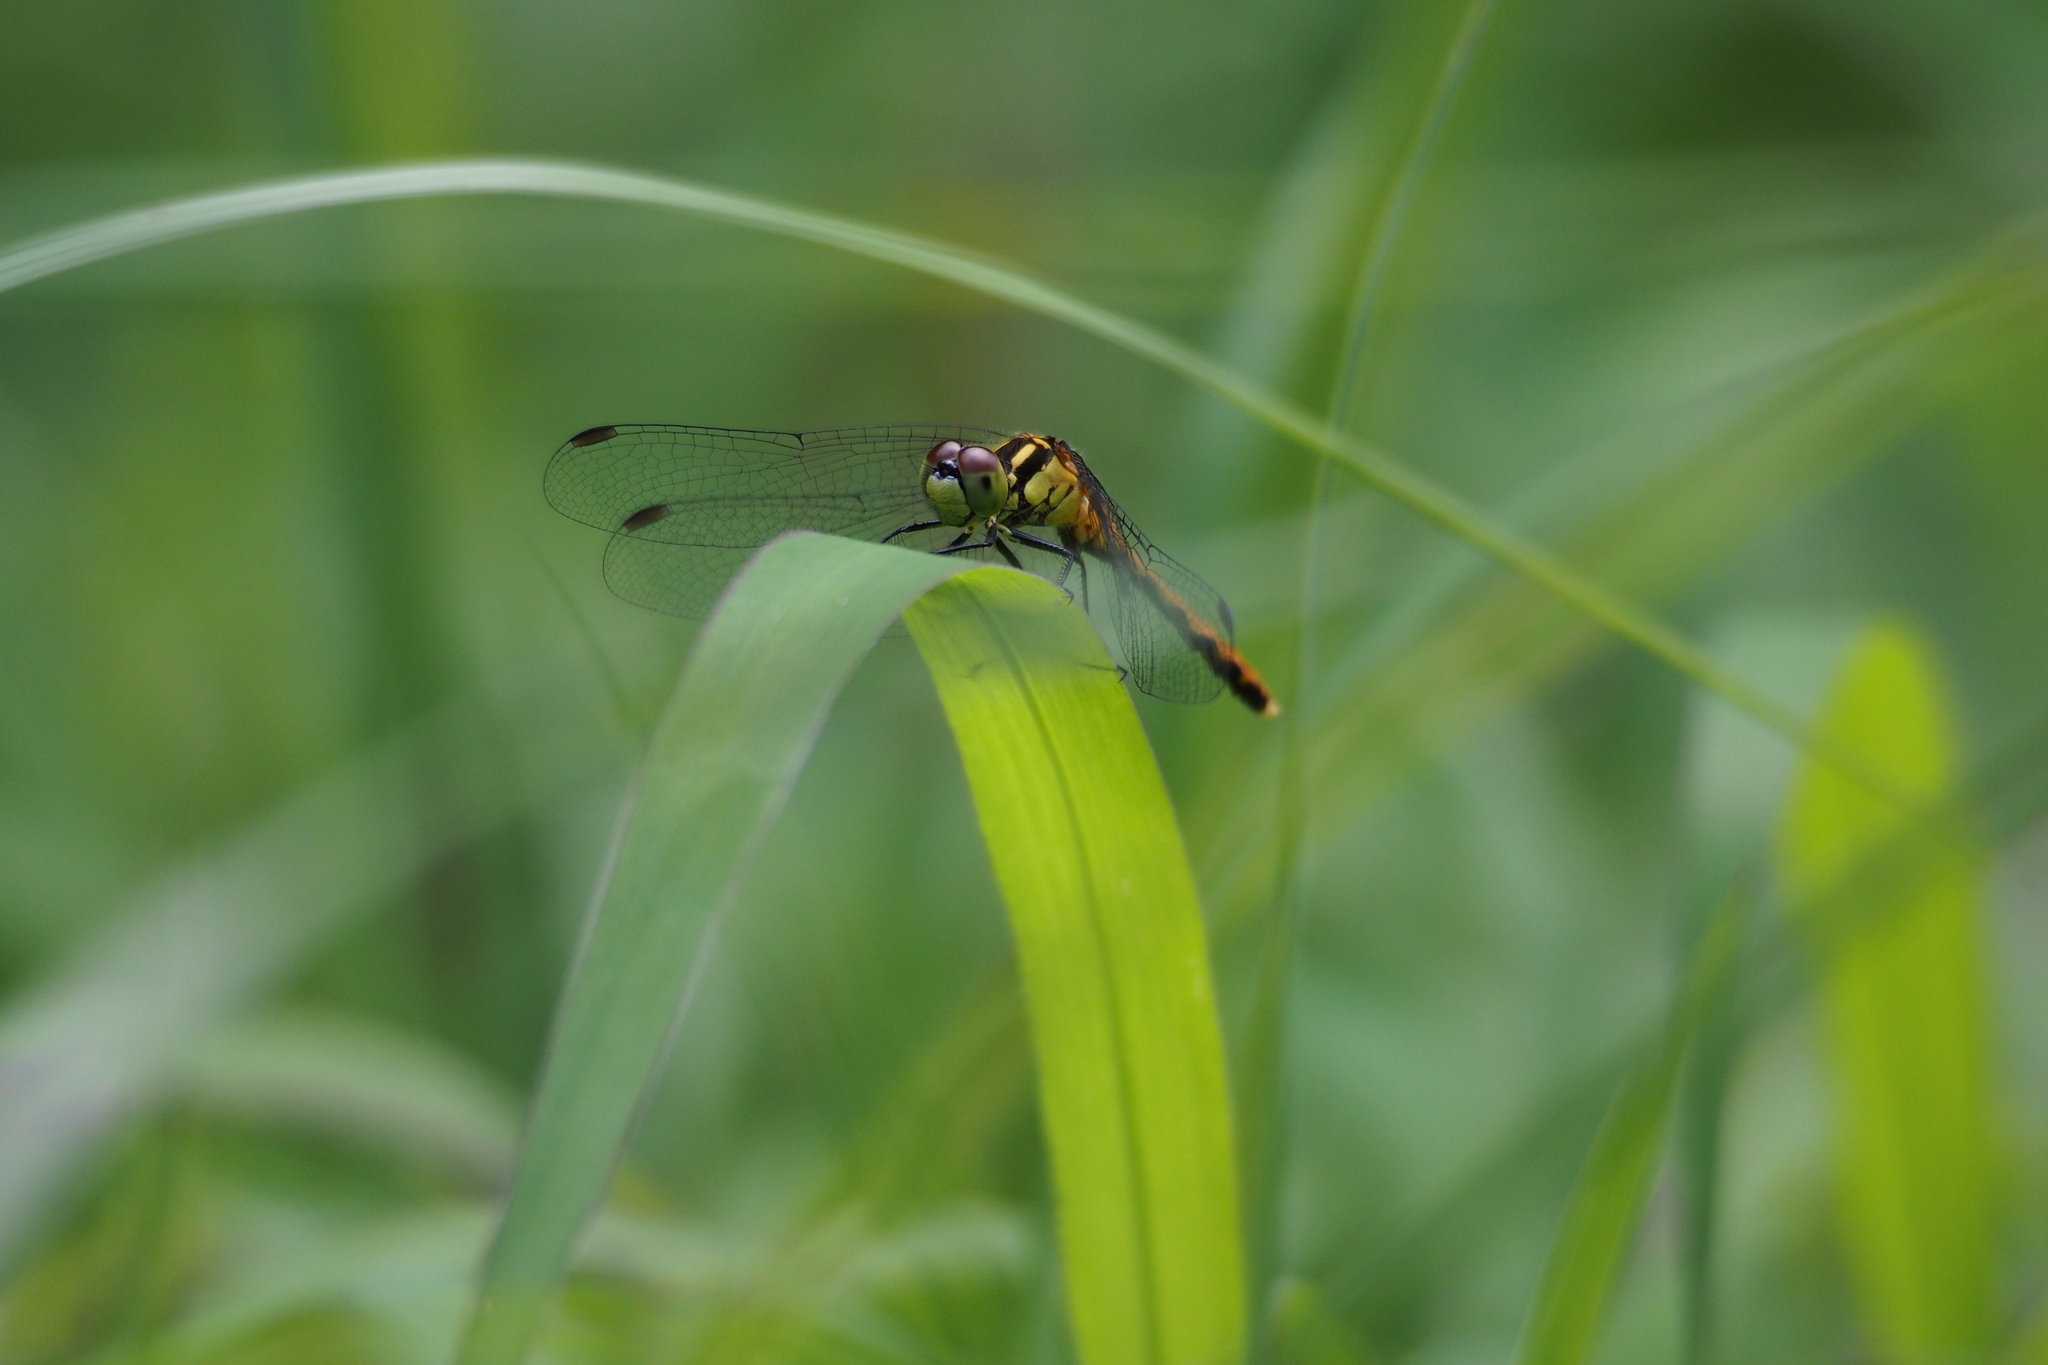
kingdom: Animalia
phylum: Arthropoda
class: Insecta
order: Odonata
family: Libellulidae
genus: Sympetrum
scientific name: Sympetrum parvulum
